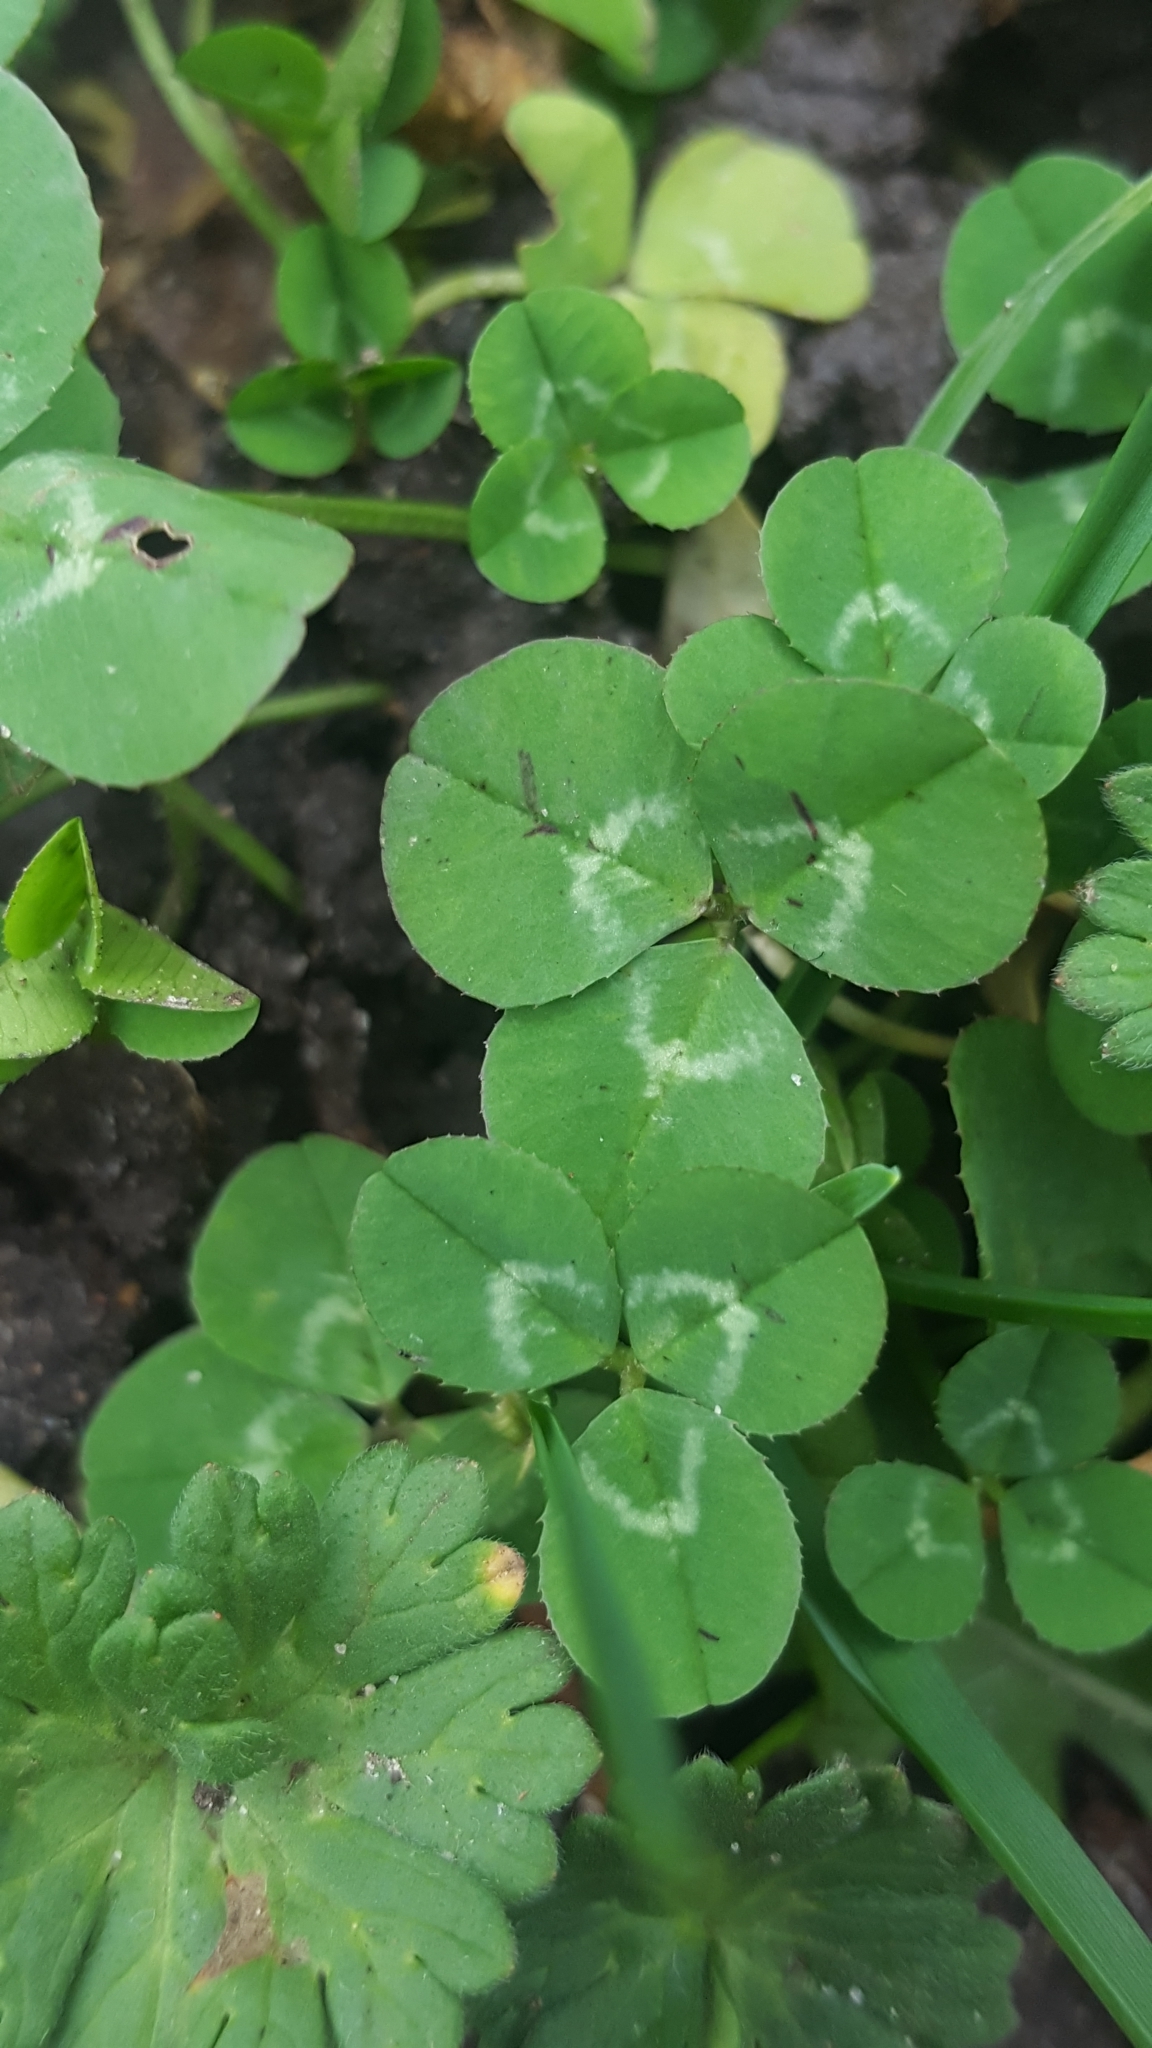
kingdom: Plantae
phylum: Tracheophyta
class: Magnoliopsida
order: Fabales
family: Fabaceae
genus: Trifolium
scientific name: Trifolium repens
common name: White clover
